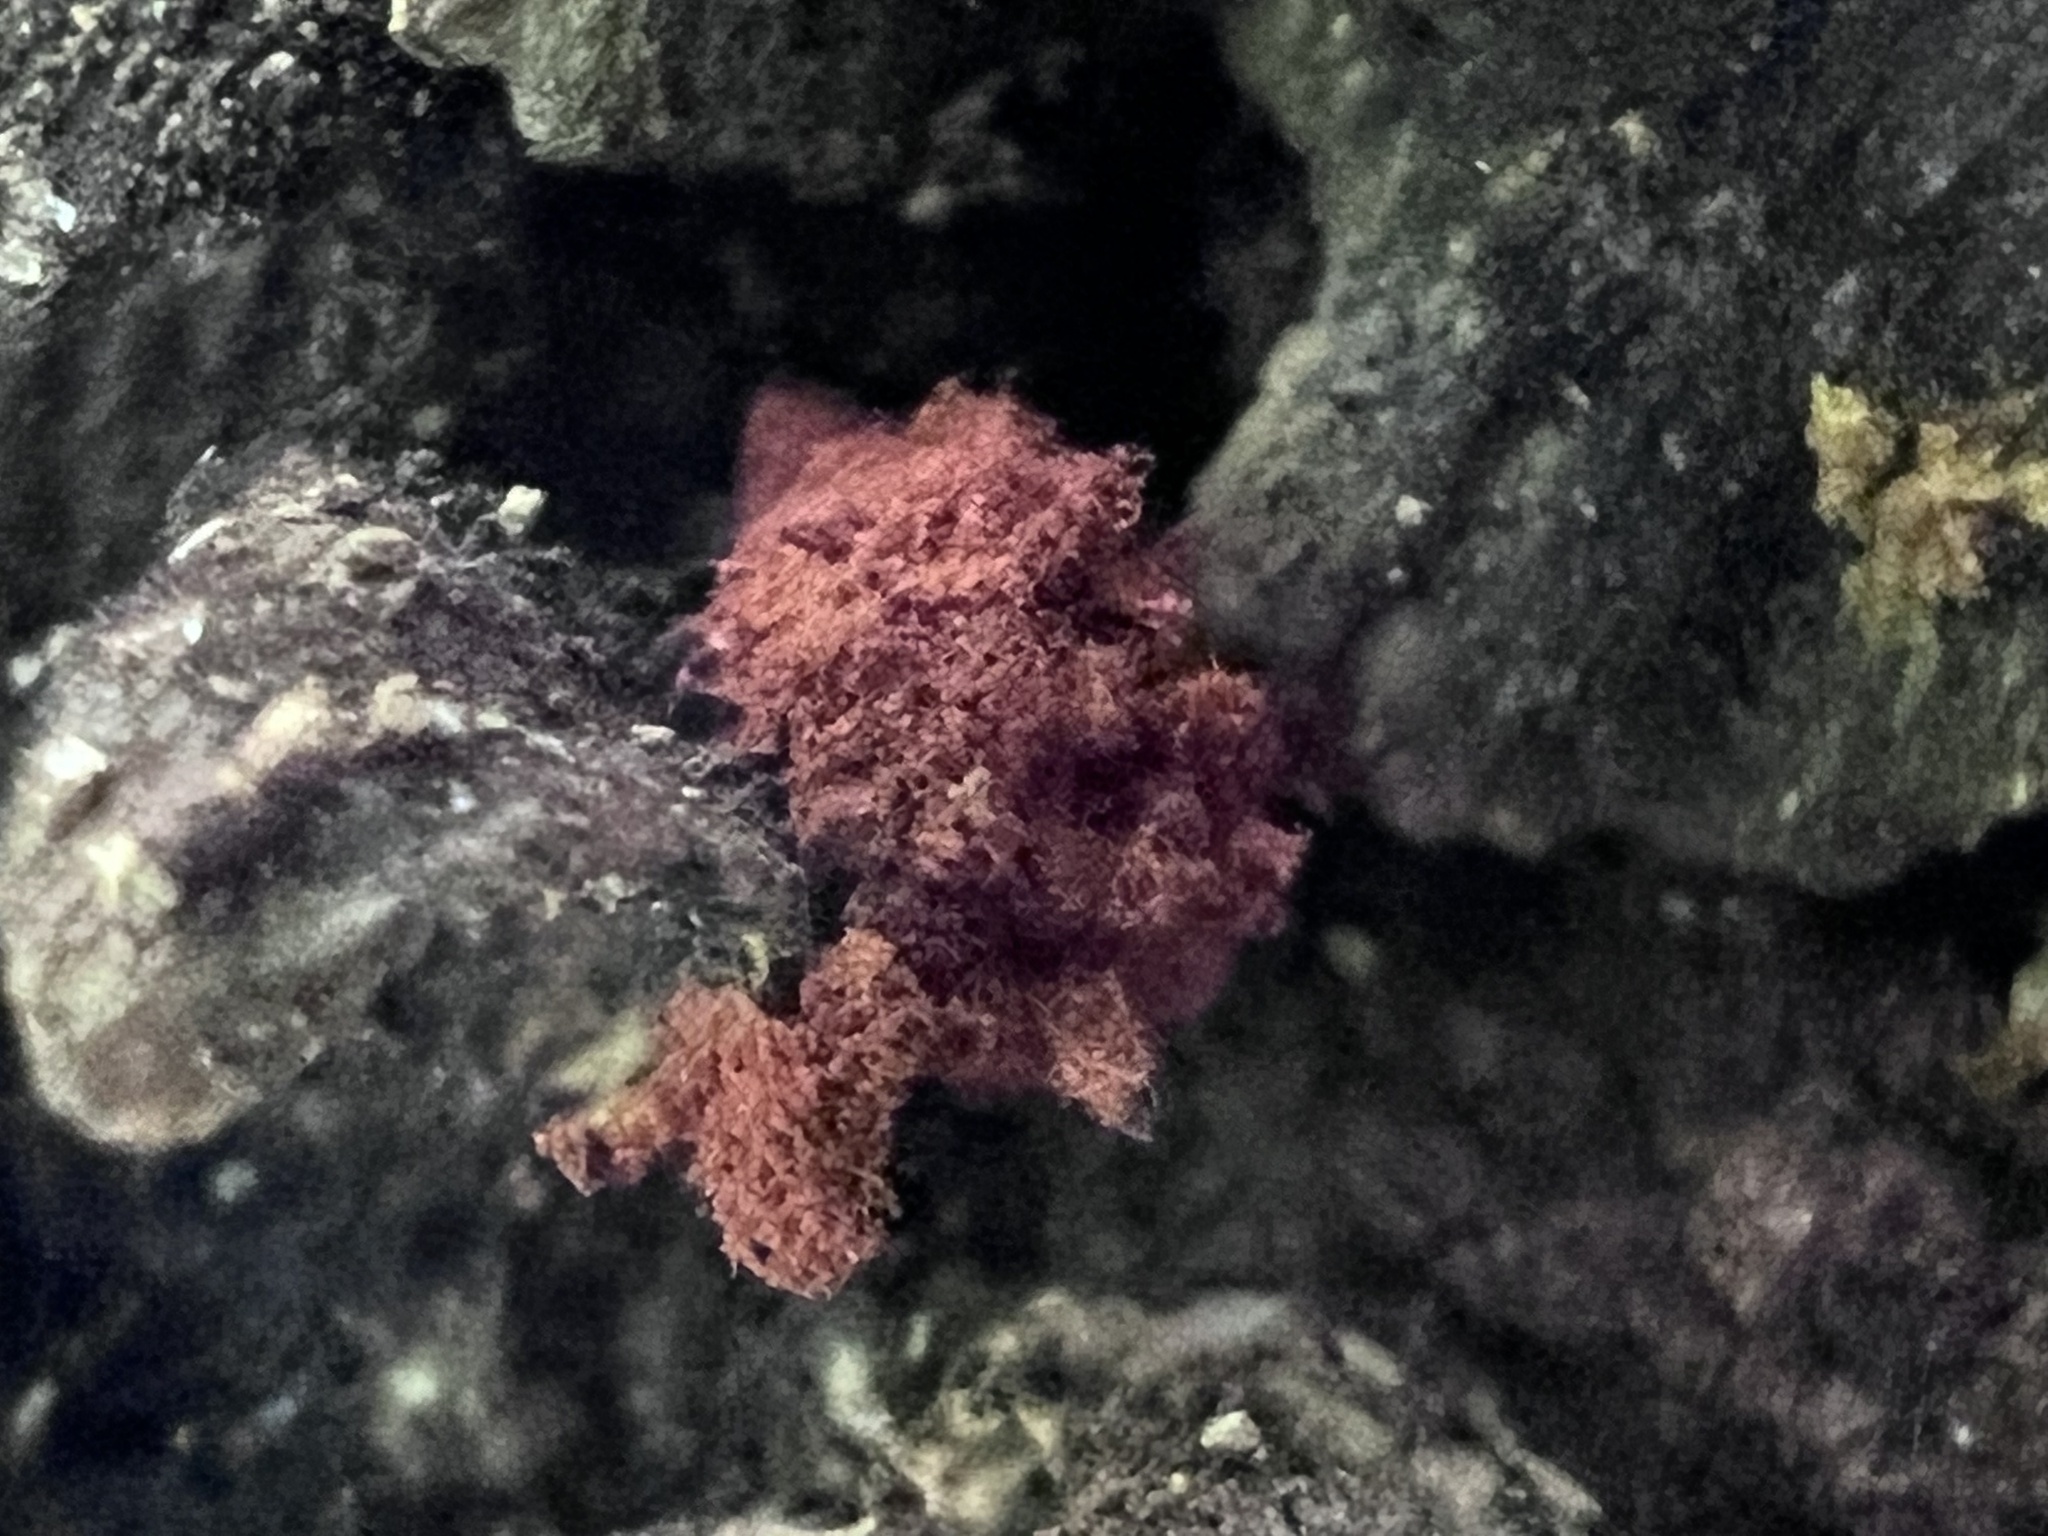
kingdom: Protozoa
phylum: Mycetozoa
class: Myxomycetes
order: Trichiales
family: Arcyriaceae
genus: Arcyria
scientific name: Arcyria denudata
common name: Carnival candy slime mold
